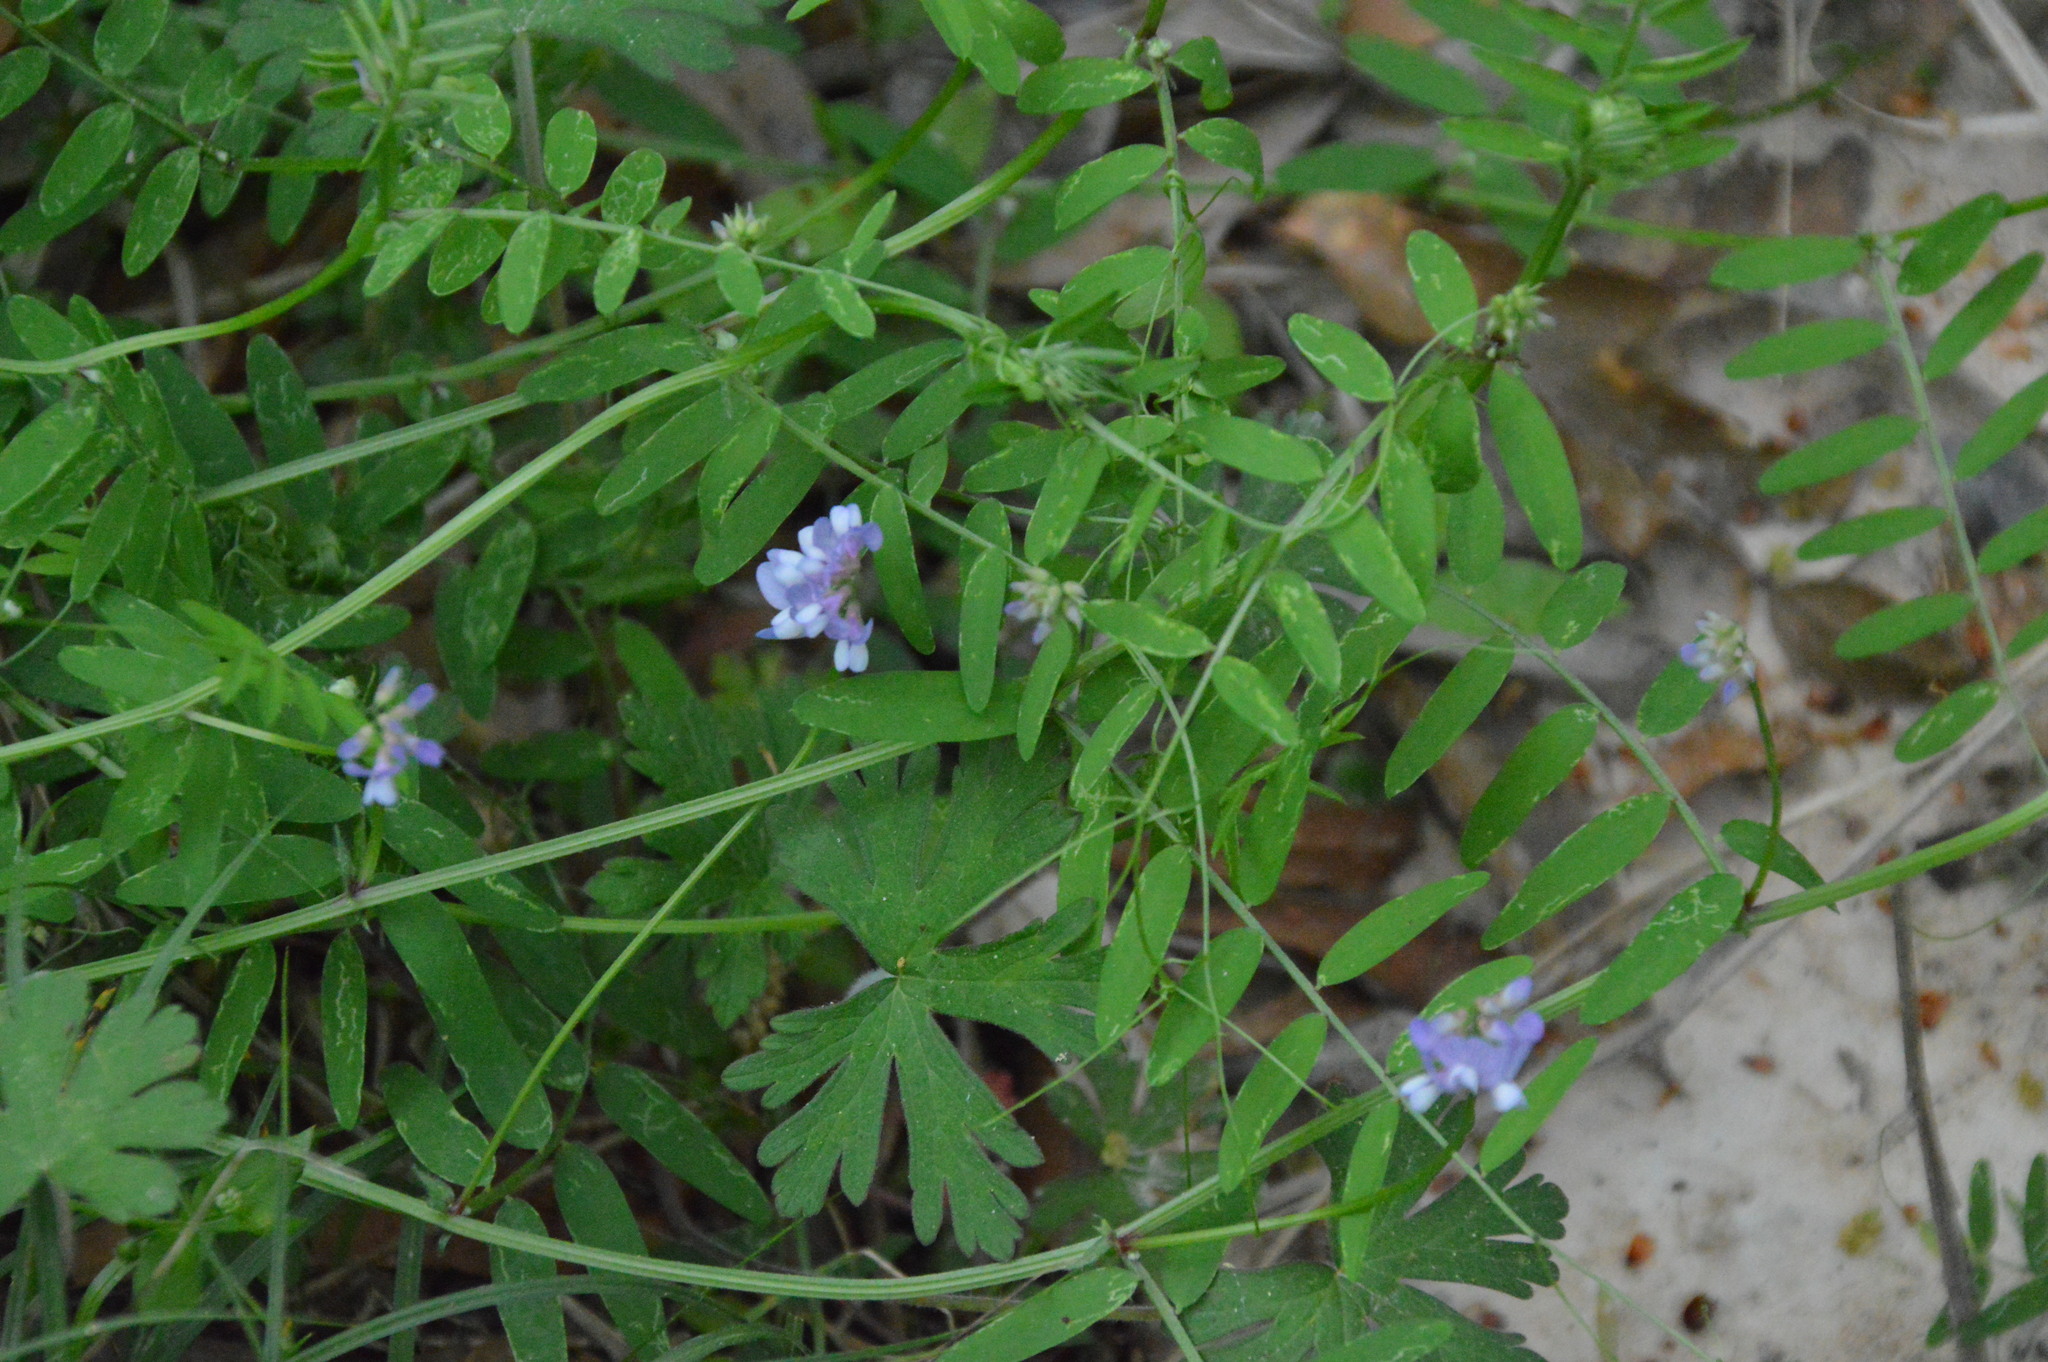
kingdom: Plantae
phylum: Tracheophyta
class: Magnoliopsida
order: Fabales
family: Fabaceae
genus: Vicia
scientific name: Vicia ludoviciana
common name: Louisiana vetch
